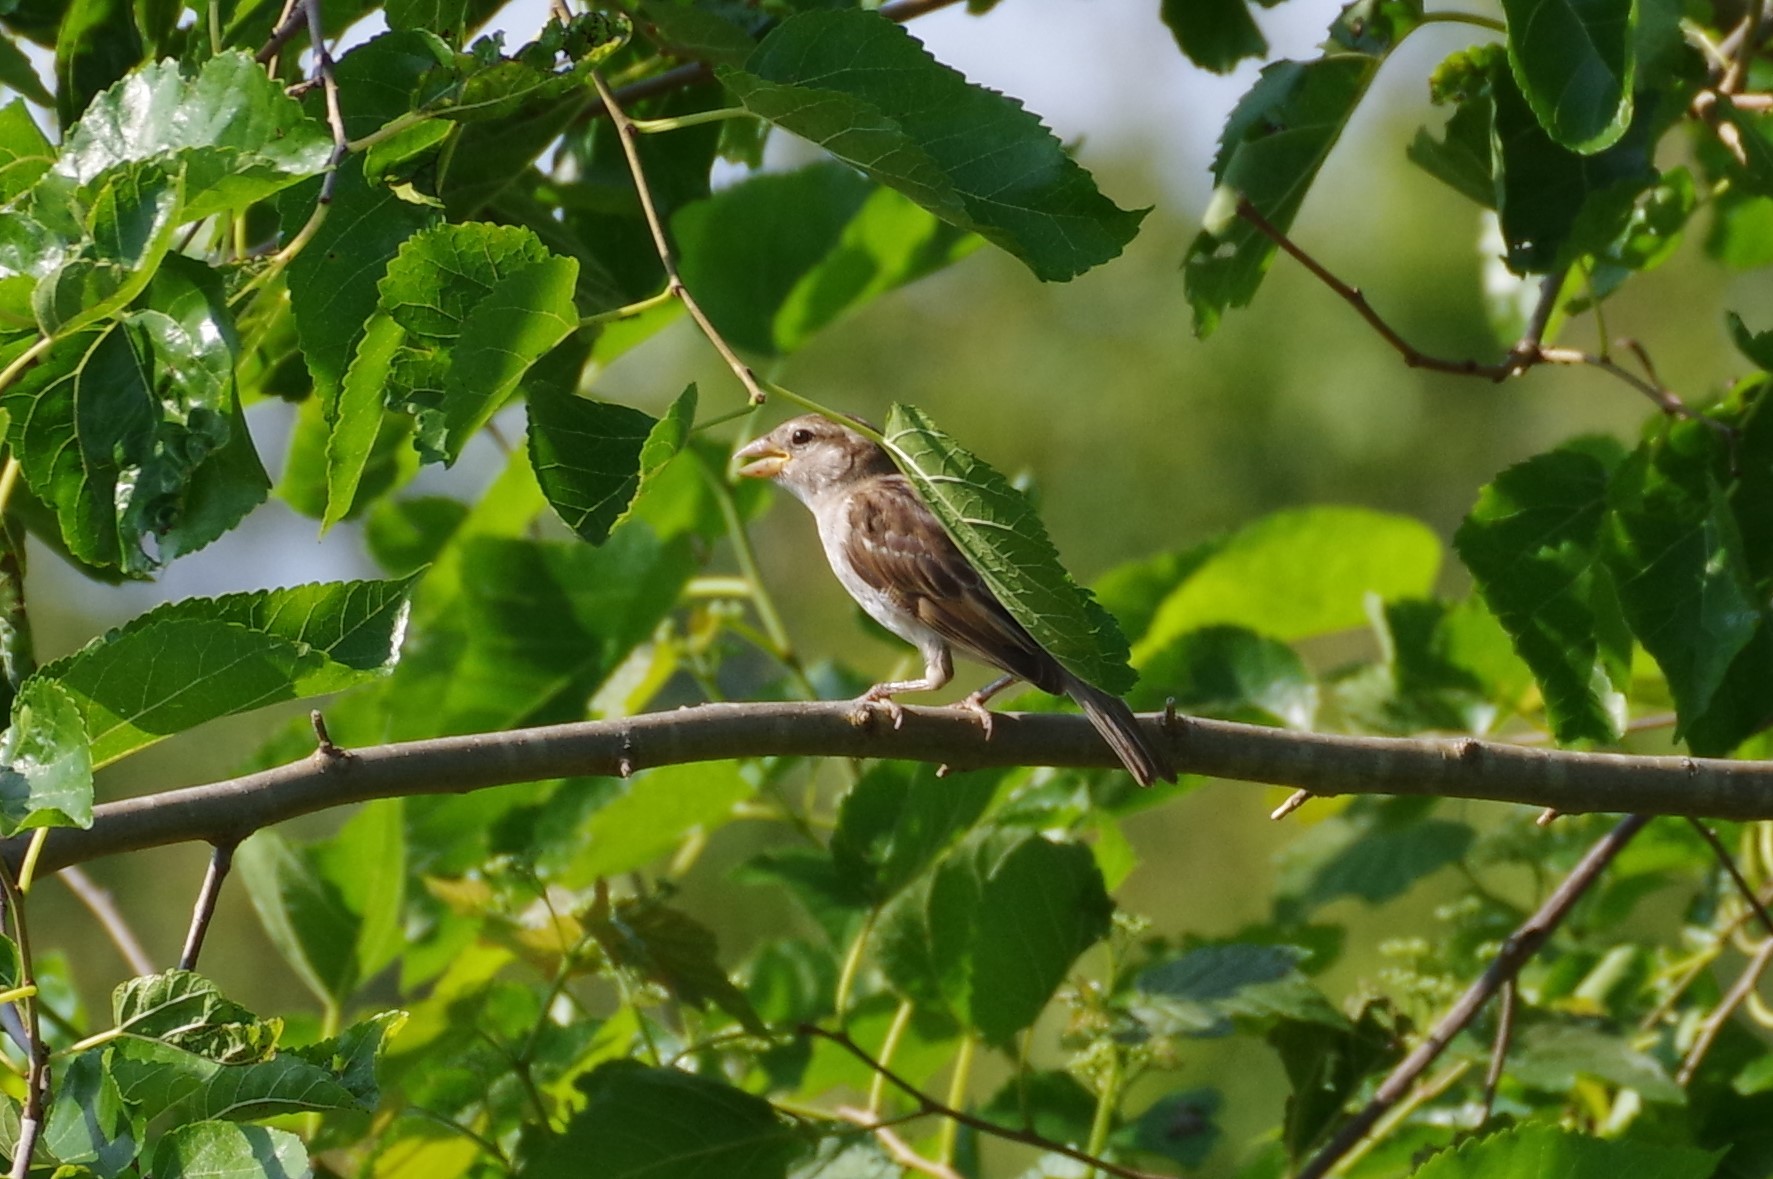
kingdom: Animalia
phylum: Chordata
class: Aves
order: Passeriformes
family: Passeridae
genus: Passer
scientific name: Passer domesticus
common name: House sparrow
